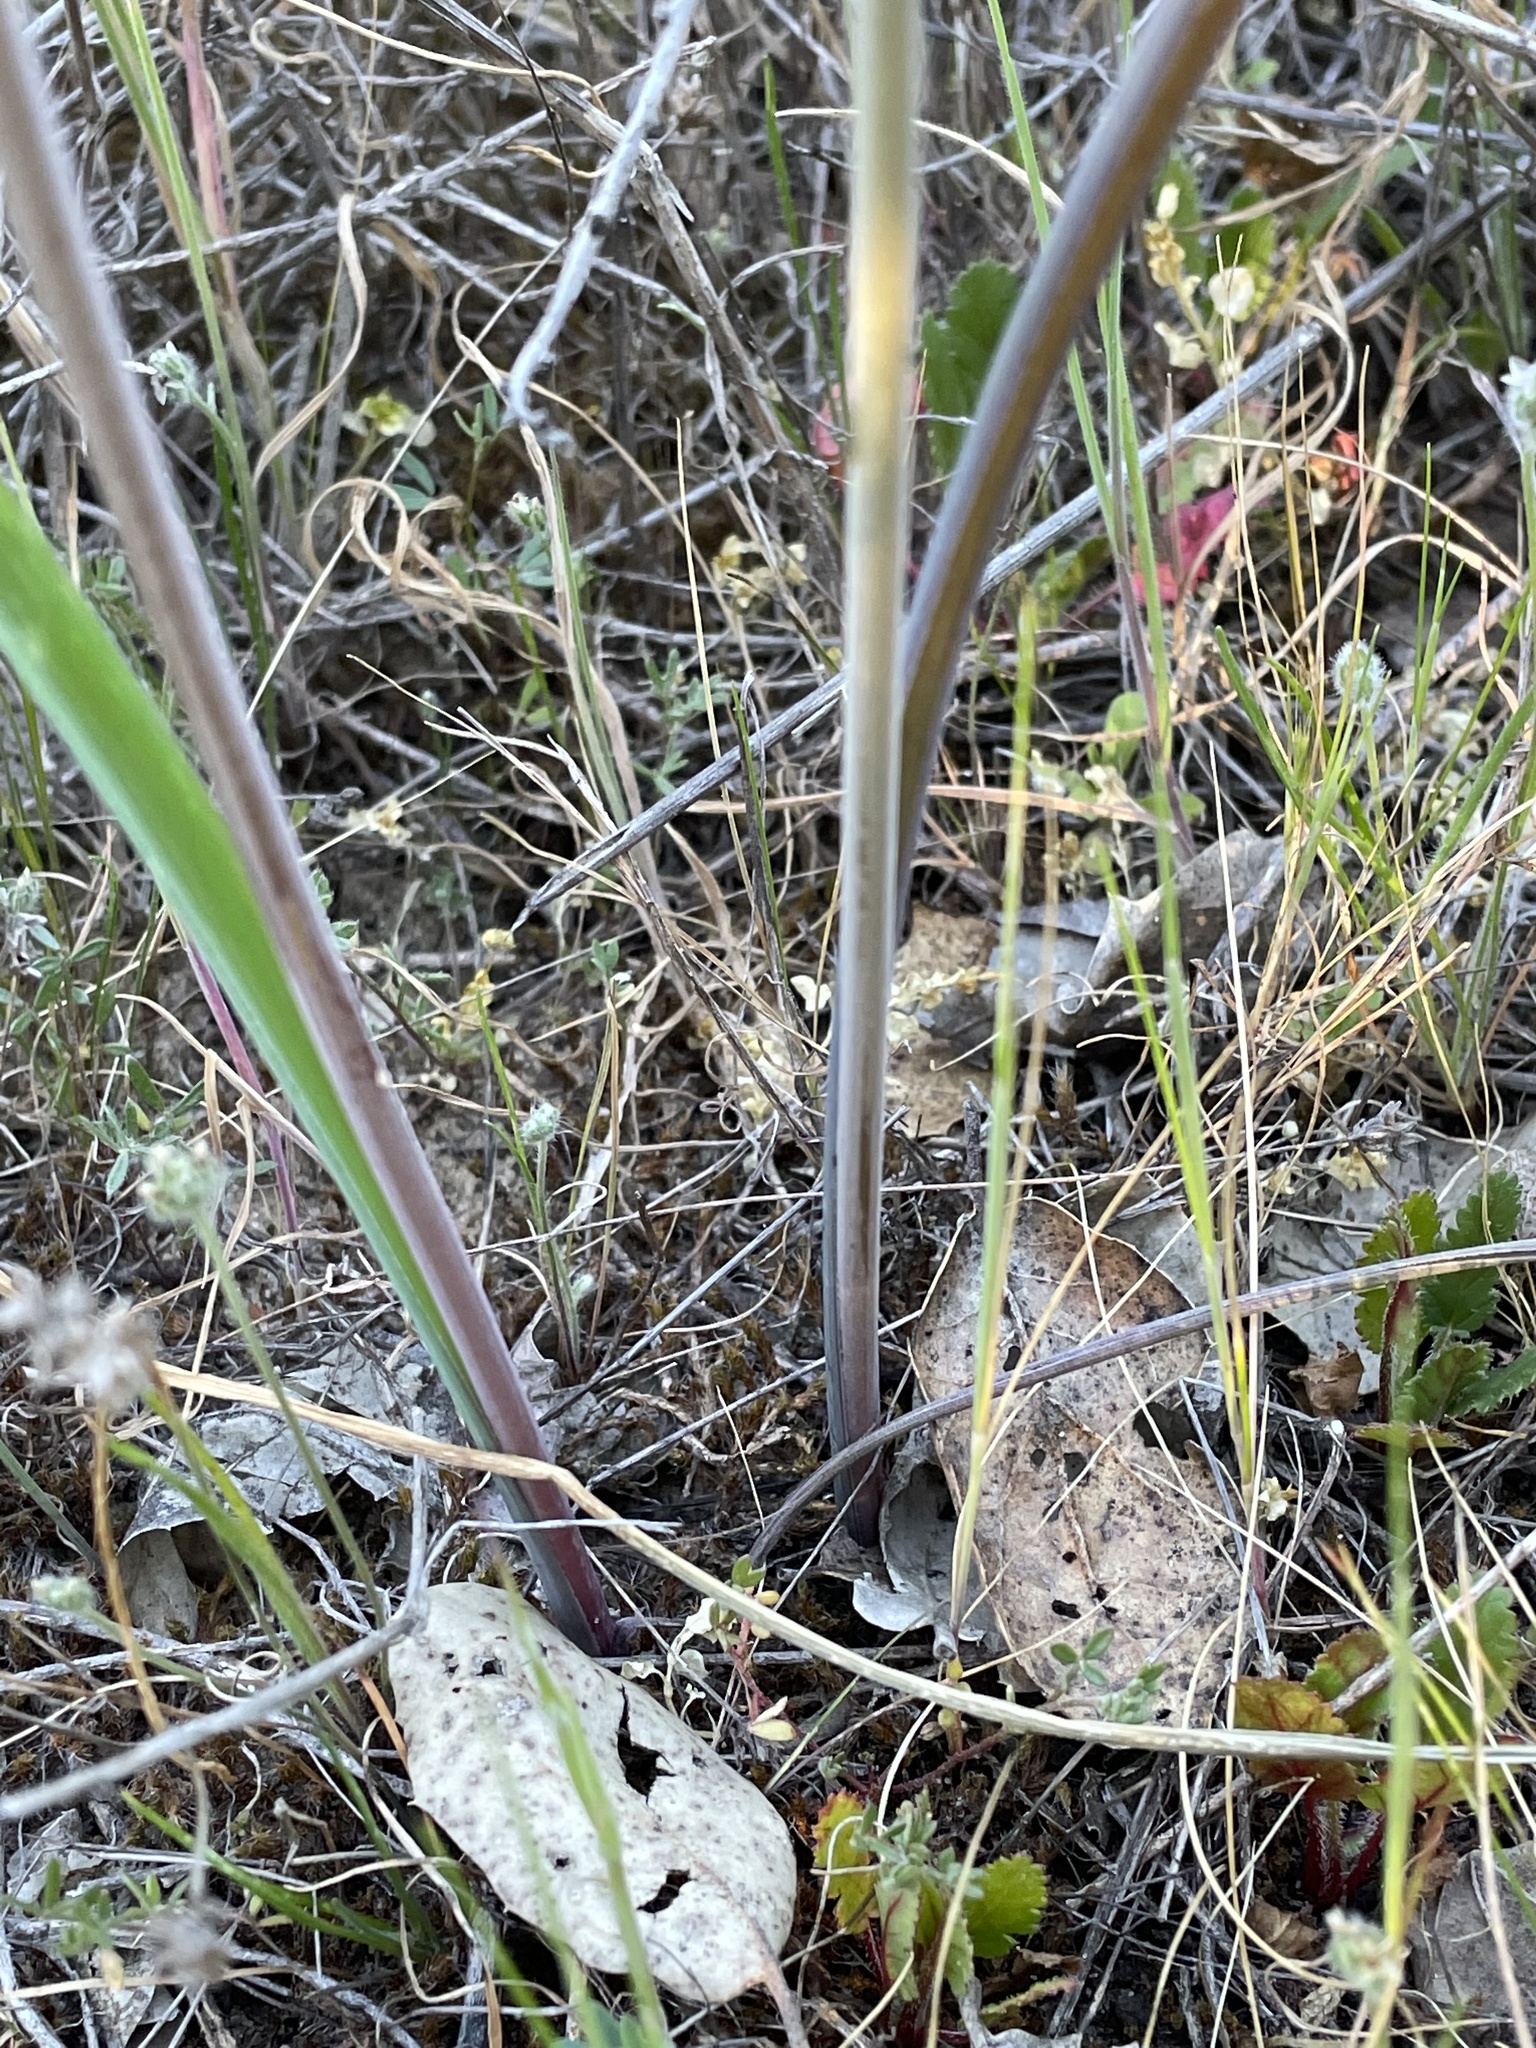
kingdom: Plantae
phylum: Tracheophyta
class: Liliopsida
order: Asparagales
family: Asparagaceae
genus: Dipterostemon
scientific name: Dipterostemon capitatus
